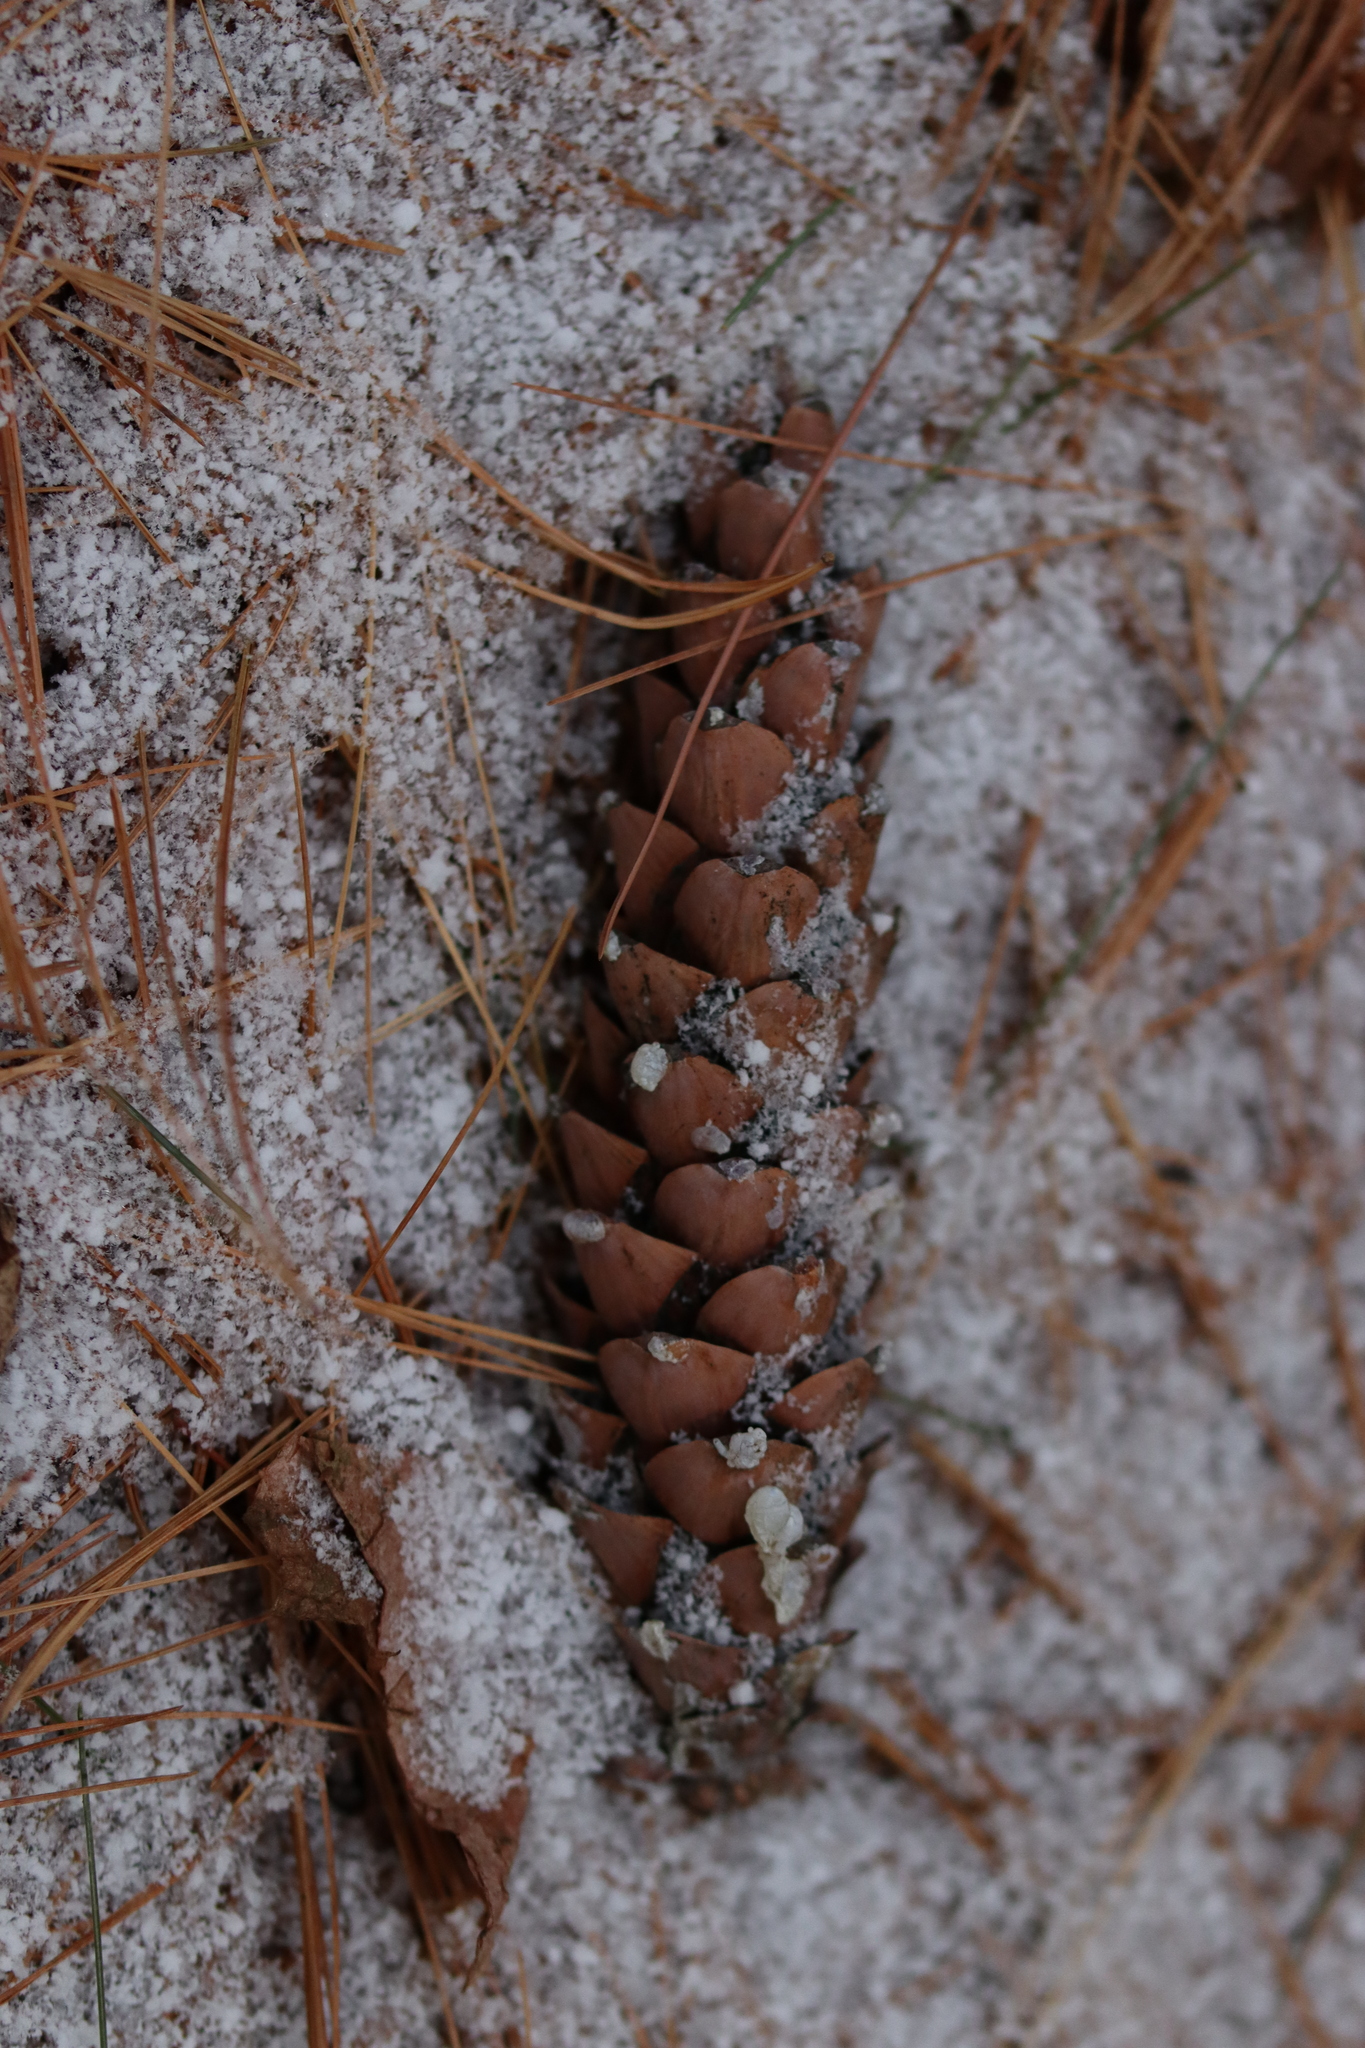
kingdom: Plantae
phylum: Tracheophyta
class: Pinopsida
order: Pinales
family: Pinaceae
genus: Pinus
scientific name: Pinus strobus
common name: Weymouth pine
